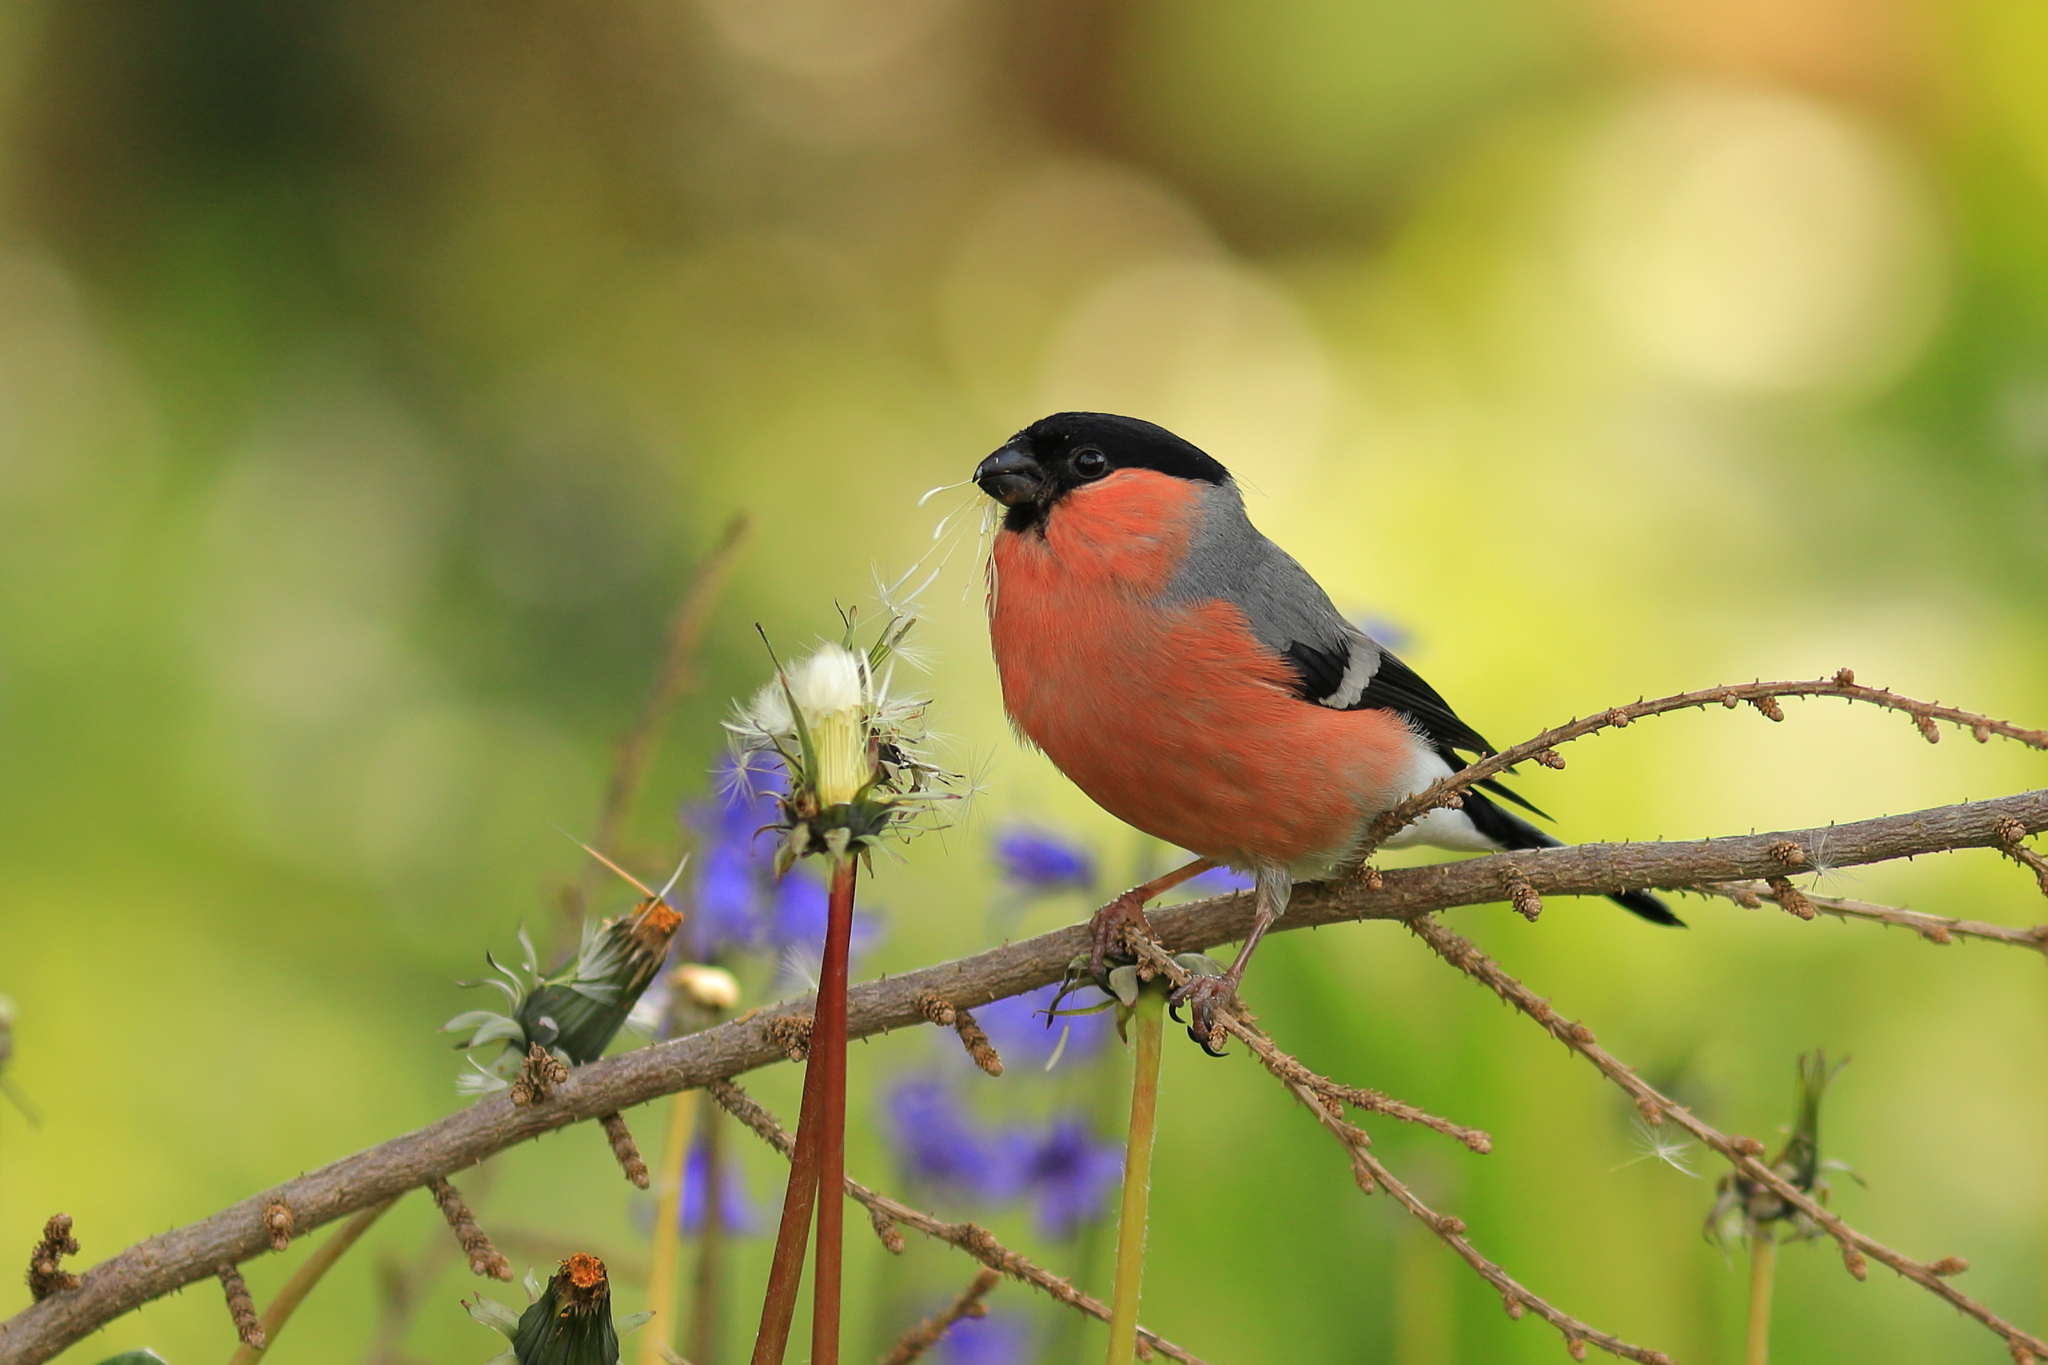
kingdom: Animalia
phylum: Chordata
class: Aves
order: Passeriformes
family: Fringillidae
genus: Pyrrhula
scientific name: Pyrrhula pyrrhula
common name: Eurasian bullfinch
